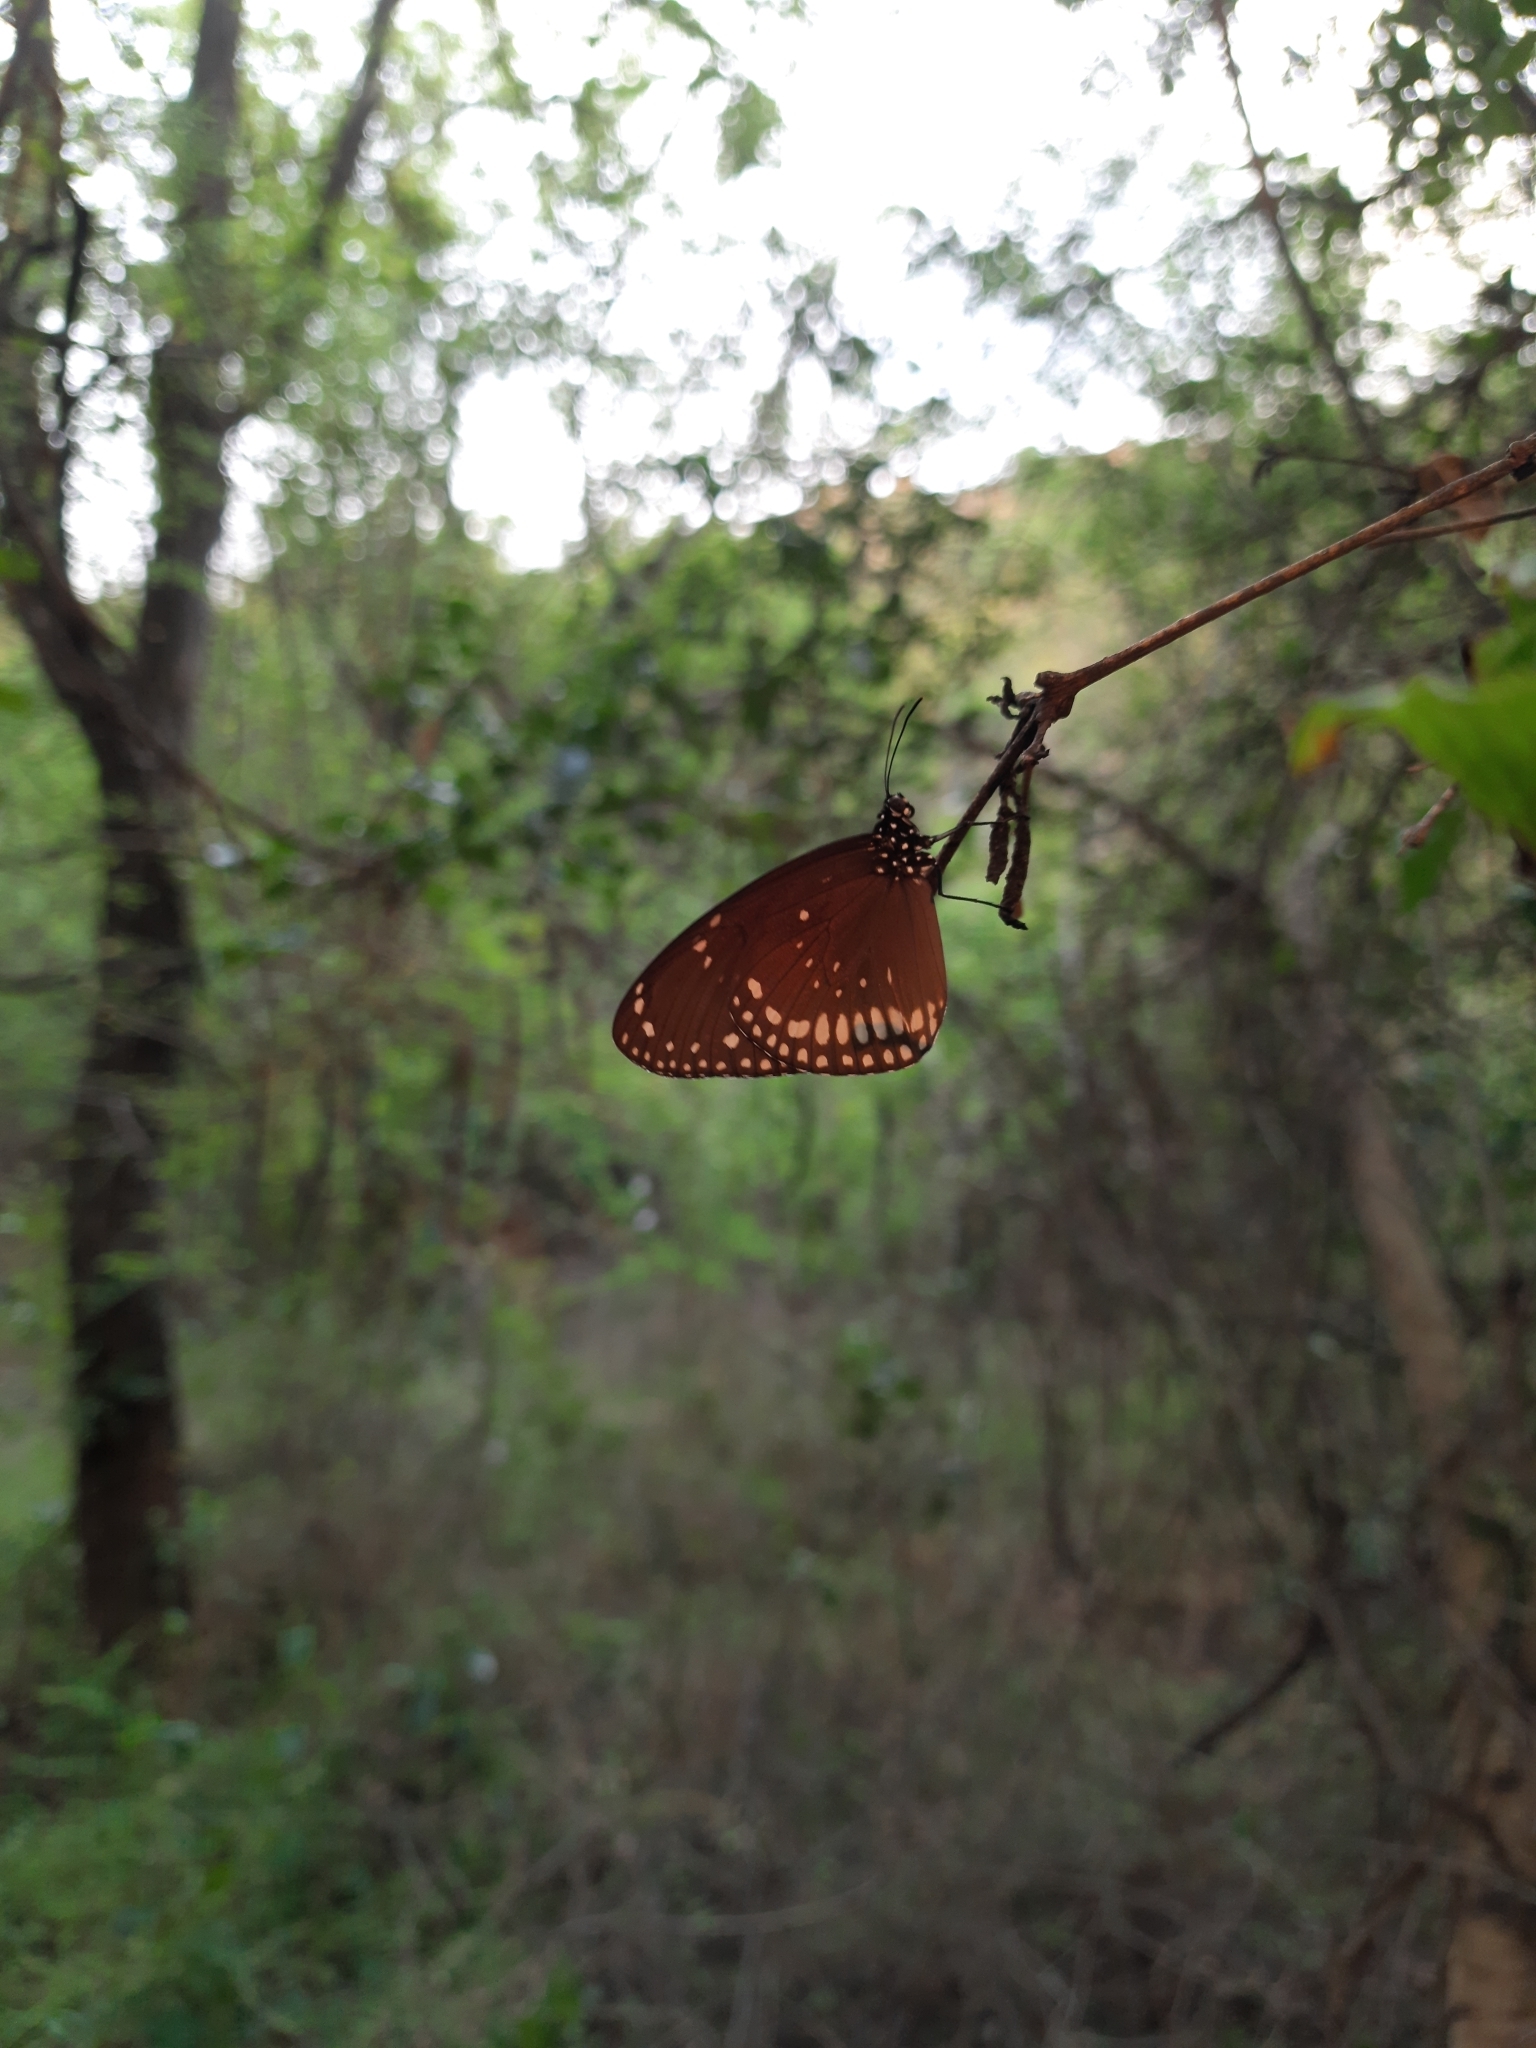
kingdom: Animalia
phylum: Arthropoda
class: Insecta
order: Lepidoptera
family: Nymphalidae
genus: Euploea
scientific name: Euploea sylvester
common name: Double-branded crow butterfly
